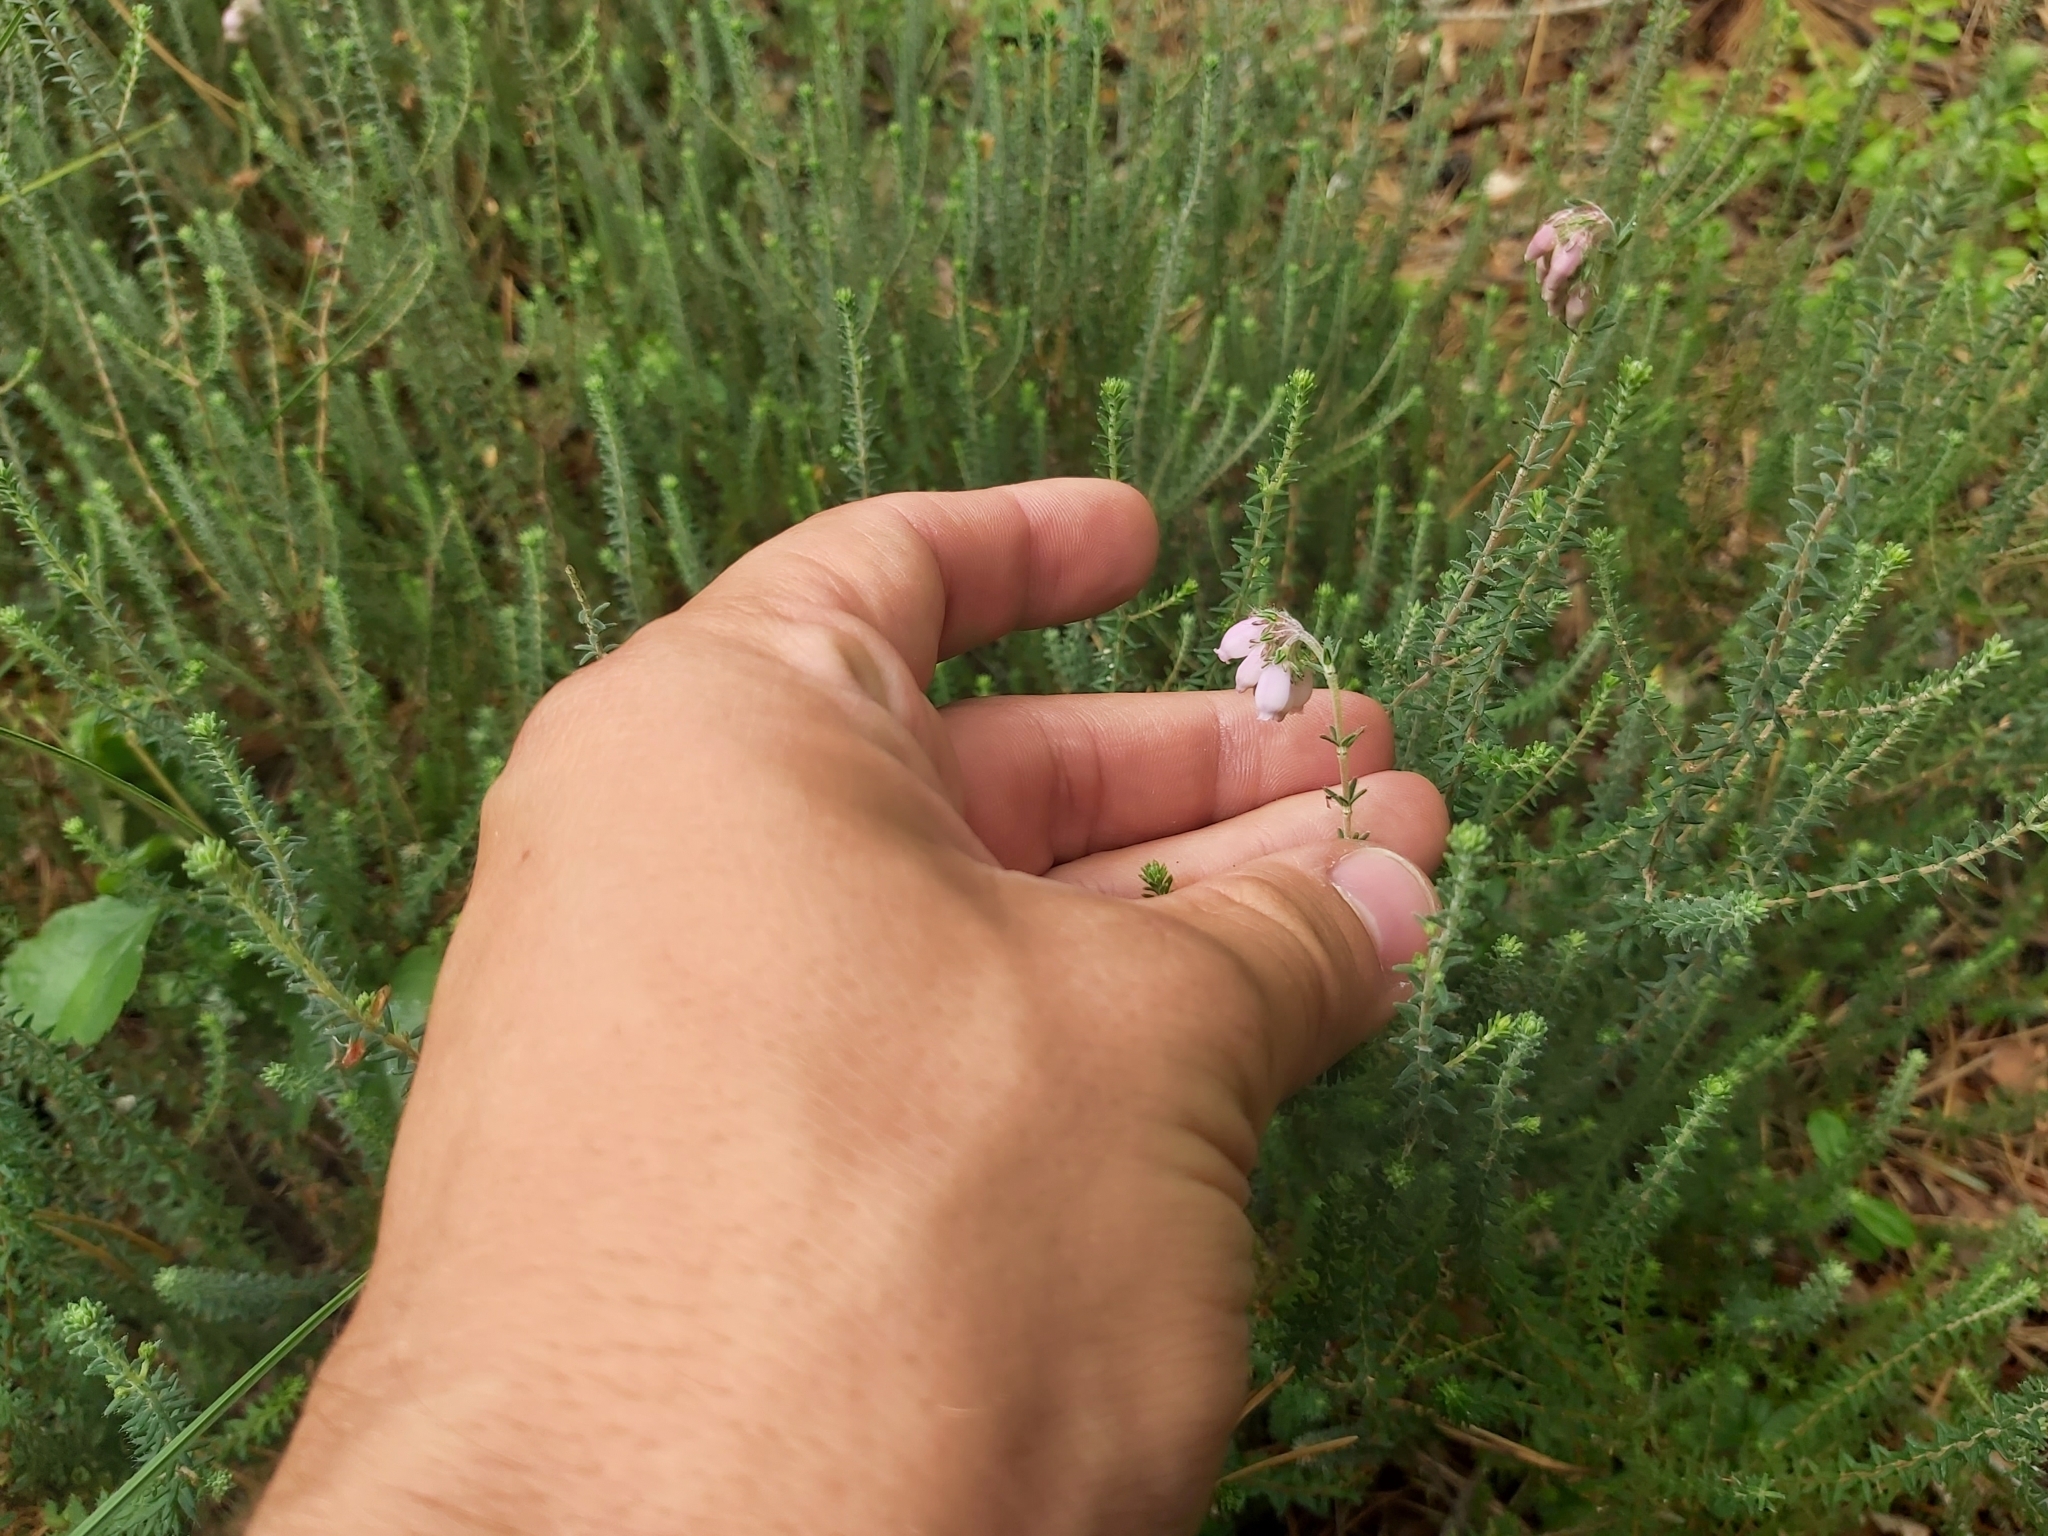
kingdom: Plantae
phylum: Tracheophyta
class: Magnoliopsida
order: Ericales
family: Ericaceae
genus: Erica
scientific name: Erica tetralix
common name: Cross-leaved heath
